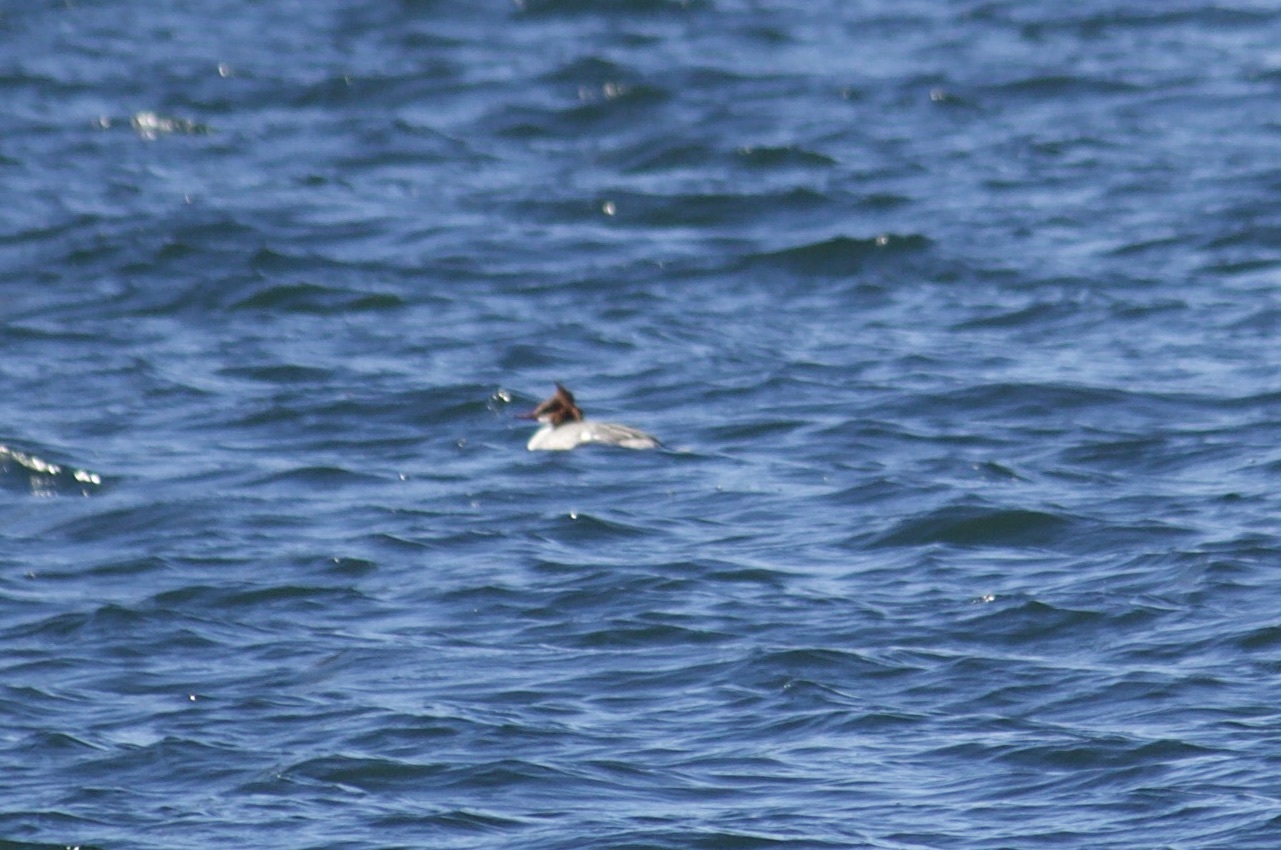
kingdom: Animalia
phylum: Chordata
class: Aves
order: Anseriformes
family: Anatidae
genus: Mergus
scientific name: Mergus serrator
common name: Red-breasted merganser
